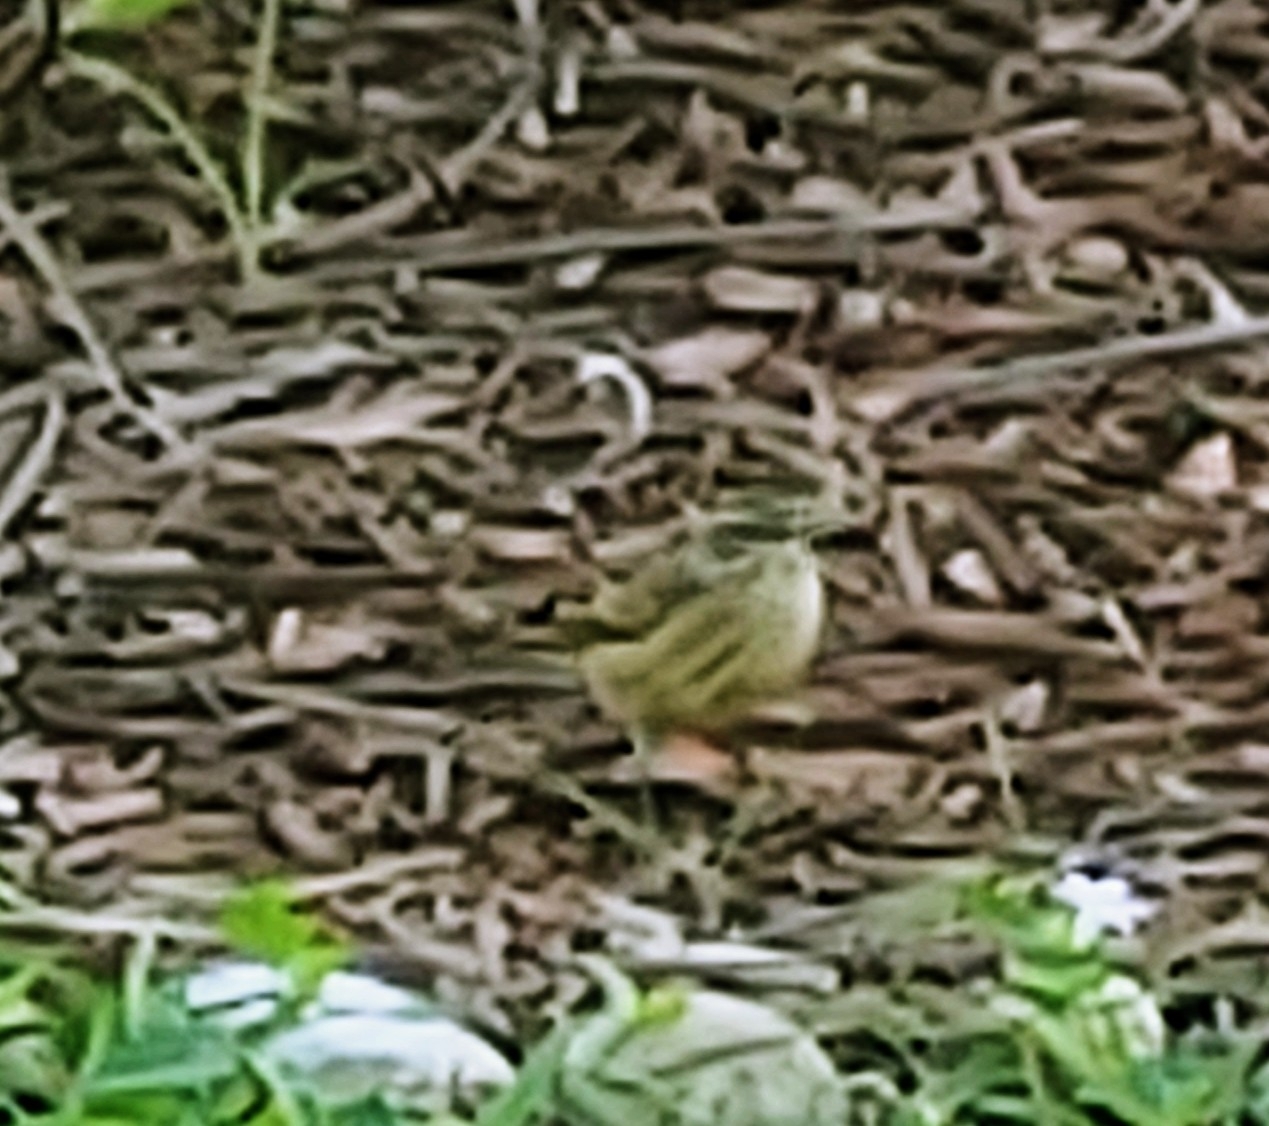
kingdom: Animalia
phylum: Chordata
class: Aves
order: Passeriformes
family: Parulidae
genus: Setophaga
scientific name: Setophaga palmarum
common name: Palm warbler
